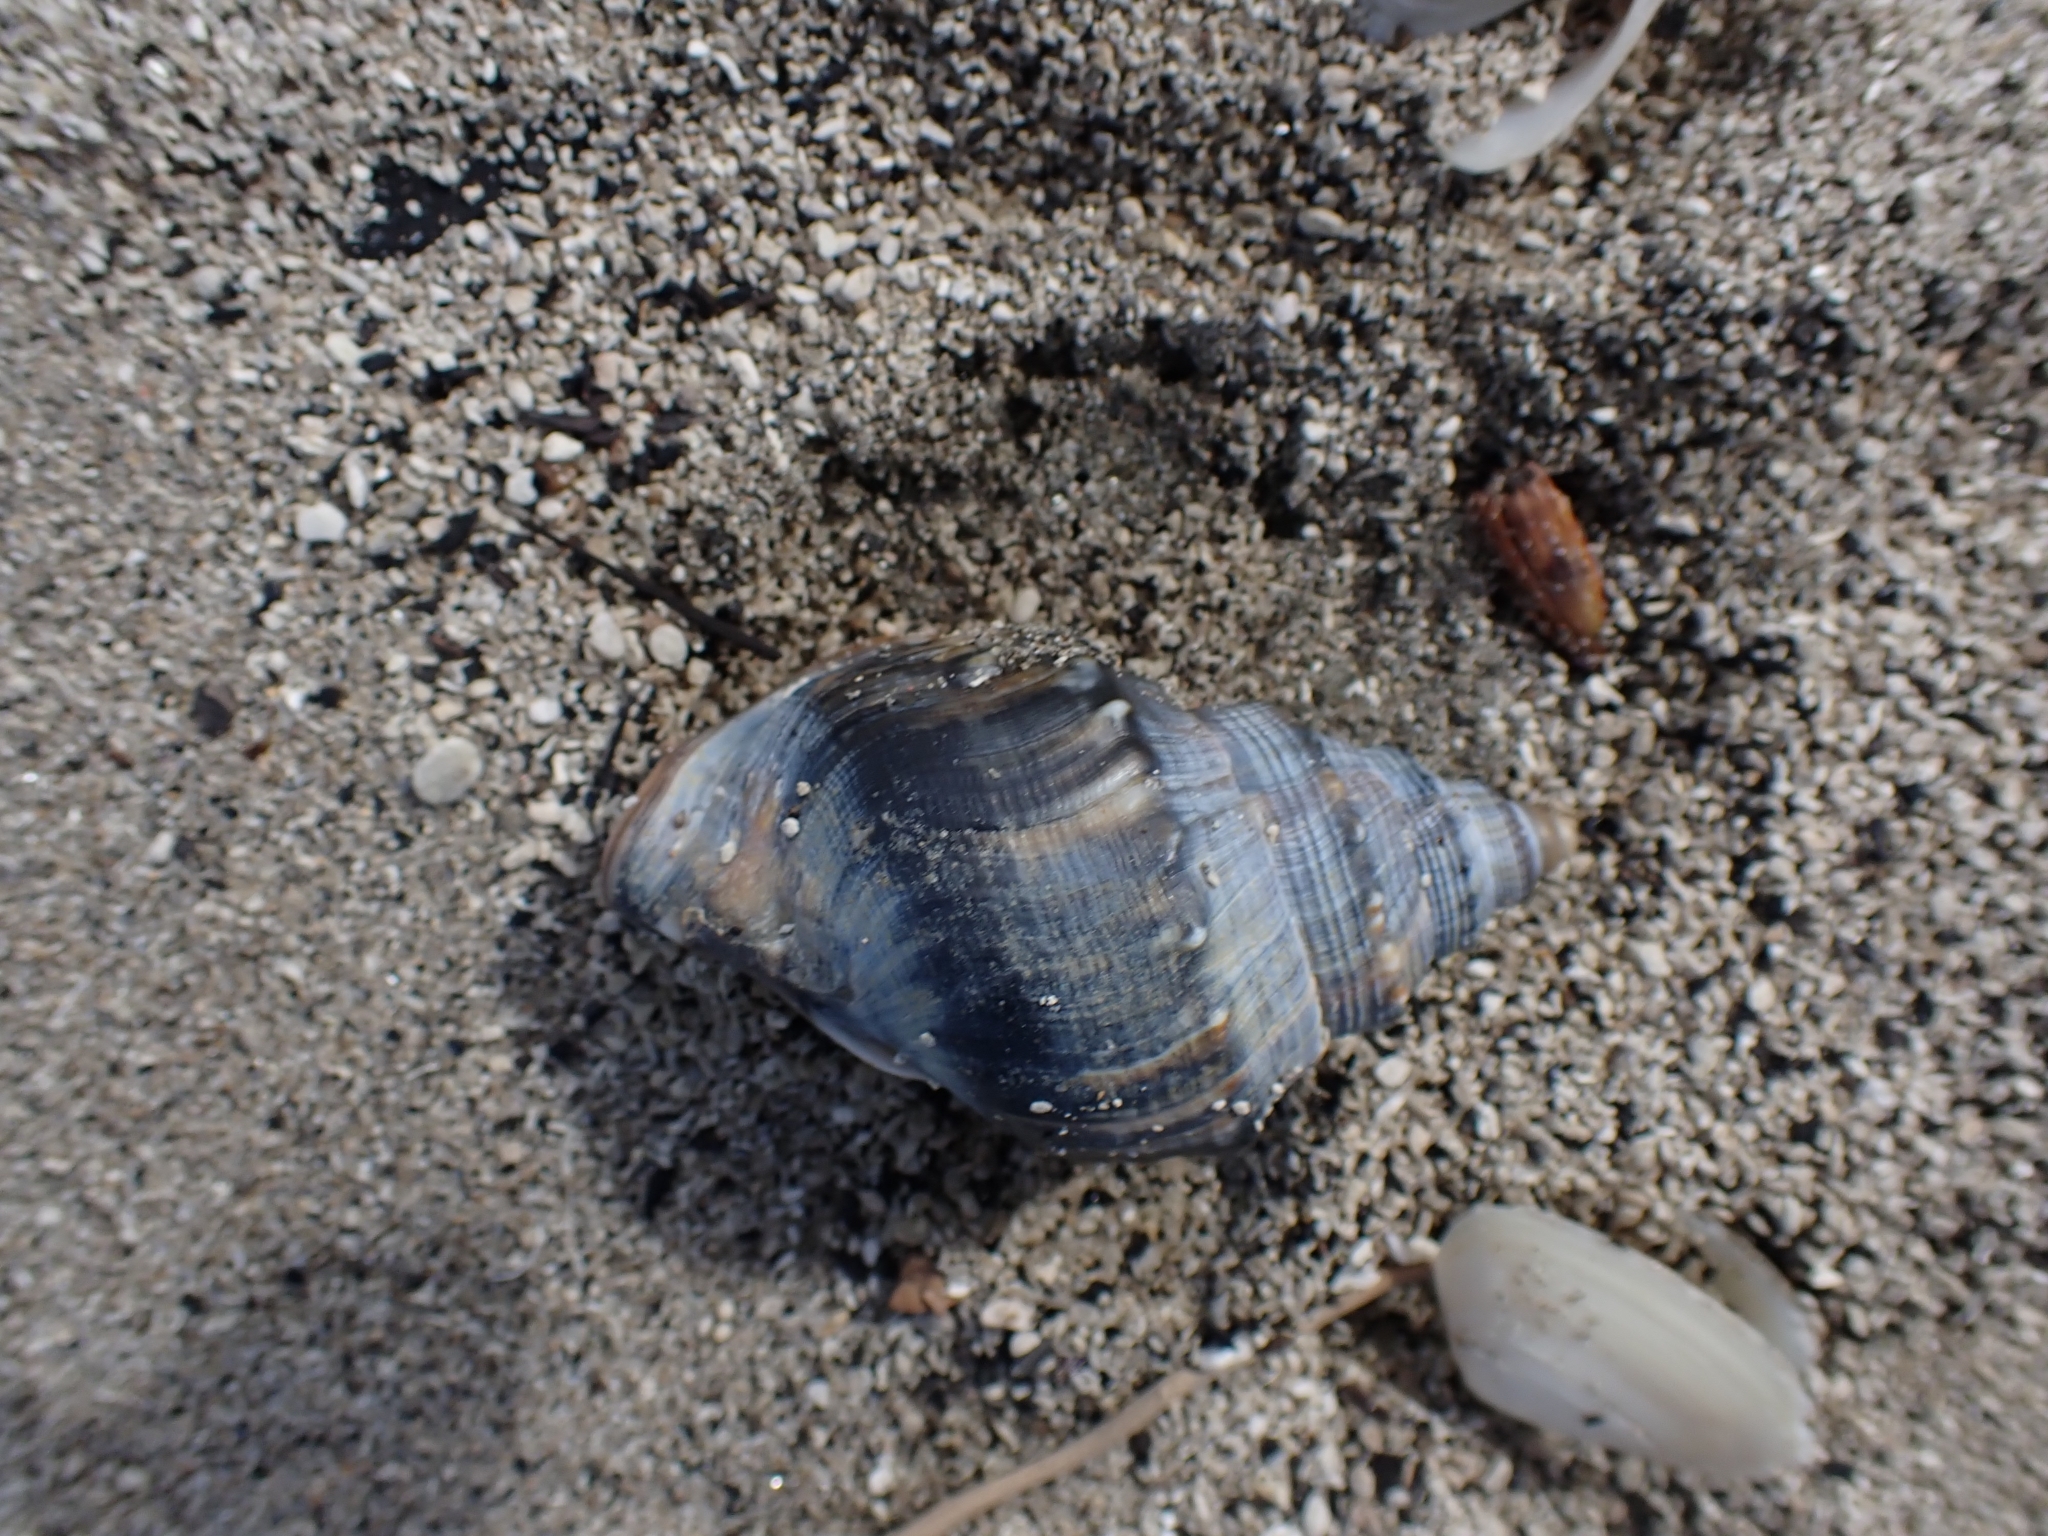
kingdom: Animalia
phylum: Mollusca
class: Gastropoda
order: Littorinimorpha
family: Struthiolariidae
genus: Struthiolaria
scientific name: Struthiolaria papulosa
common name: Large ostrich foot
